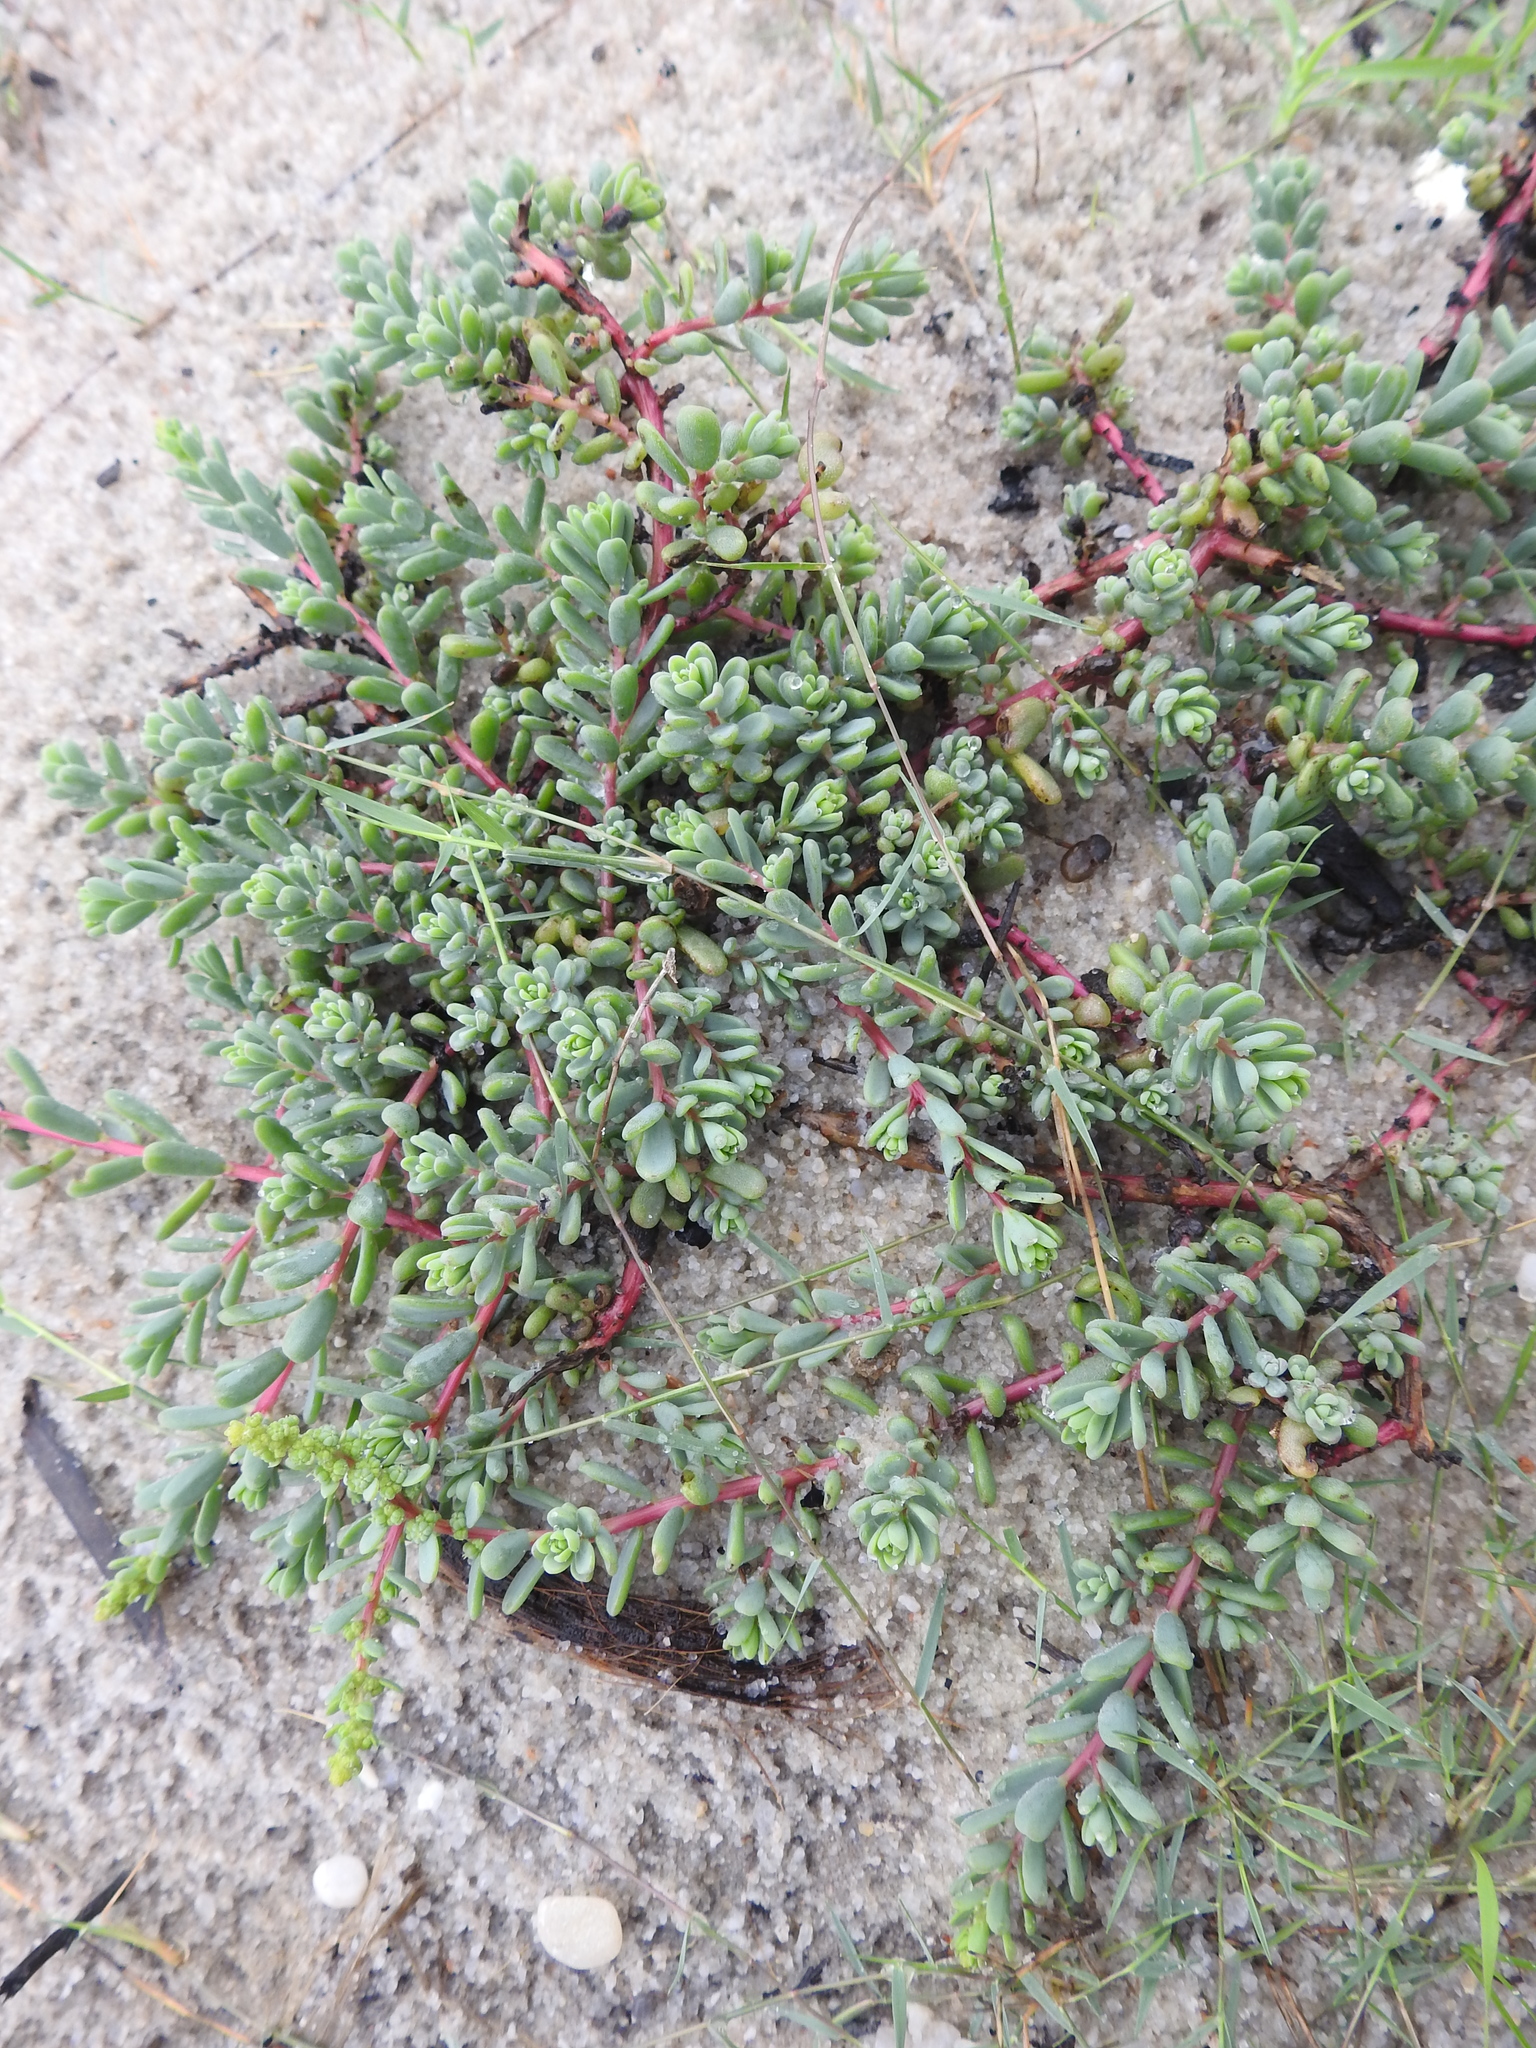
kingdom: Plantae
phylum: Tracheophyta
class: Magnoliopsida
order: Caryophyllales
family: Amaranthaceae
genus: Suaeda
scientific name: Suaeda nigra
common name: Bush seepweed
